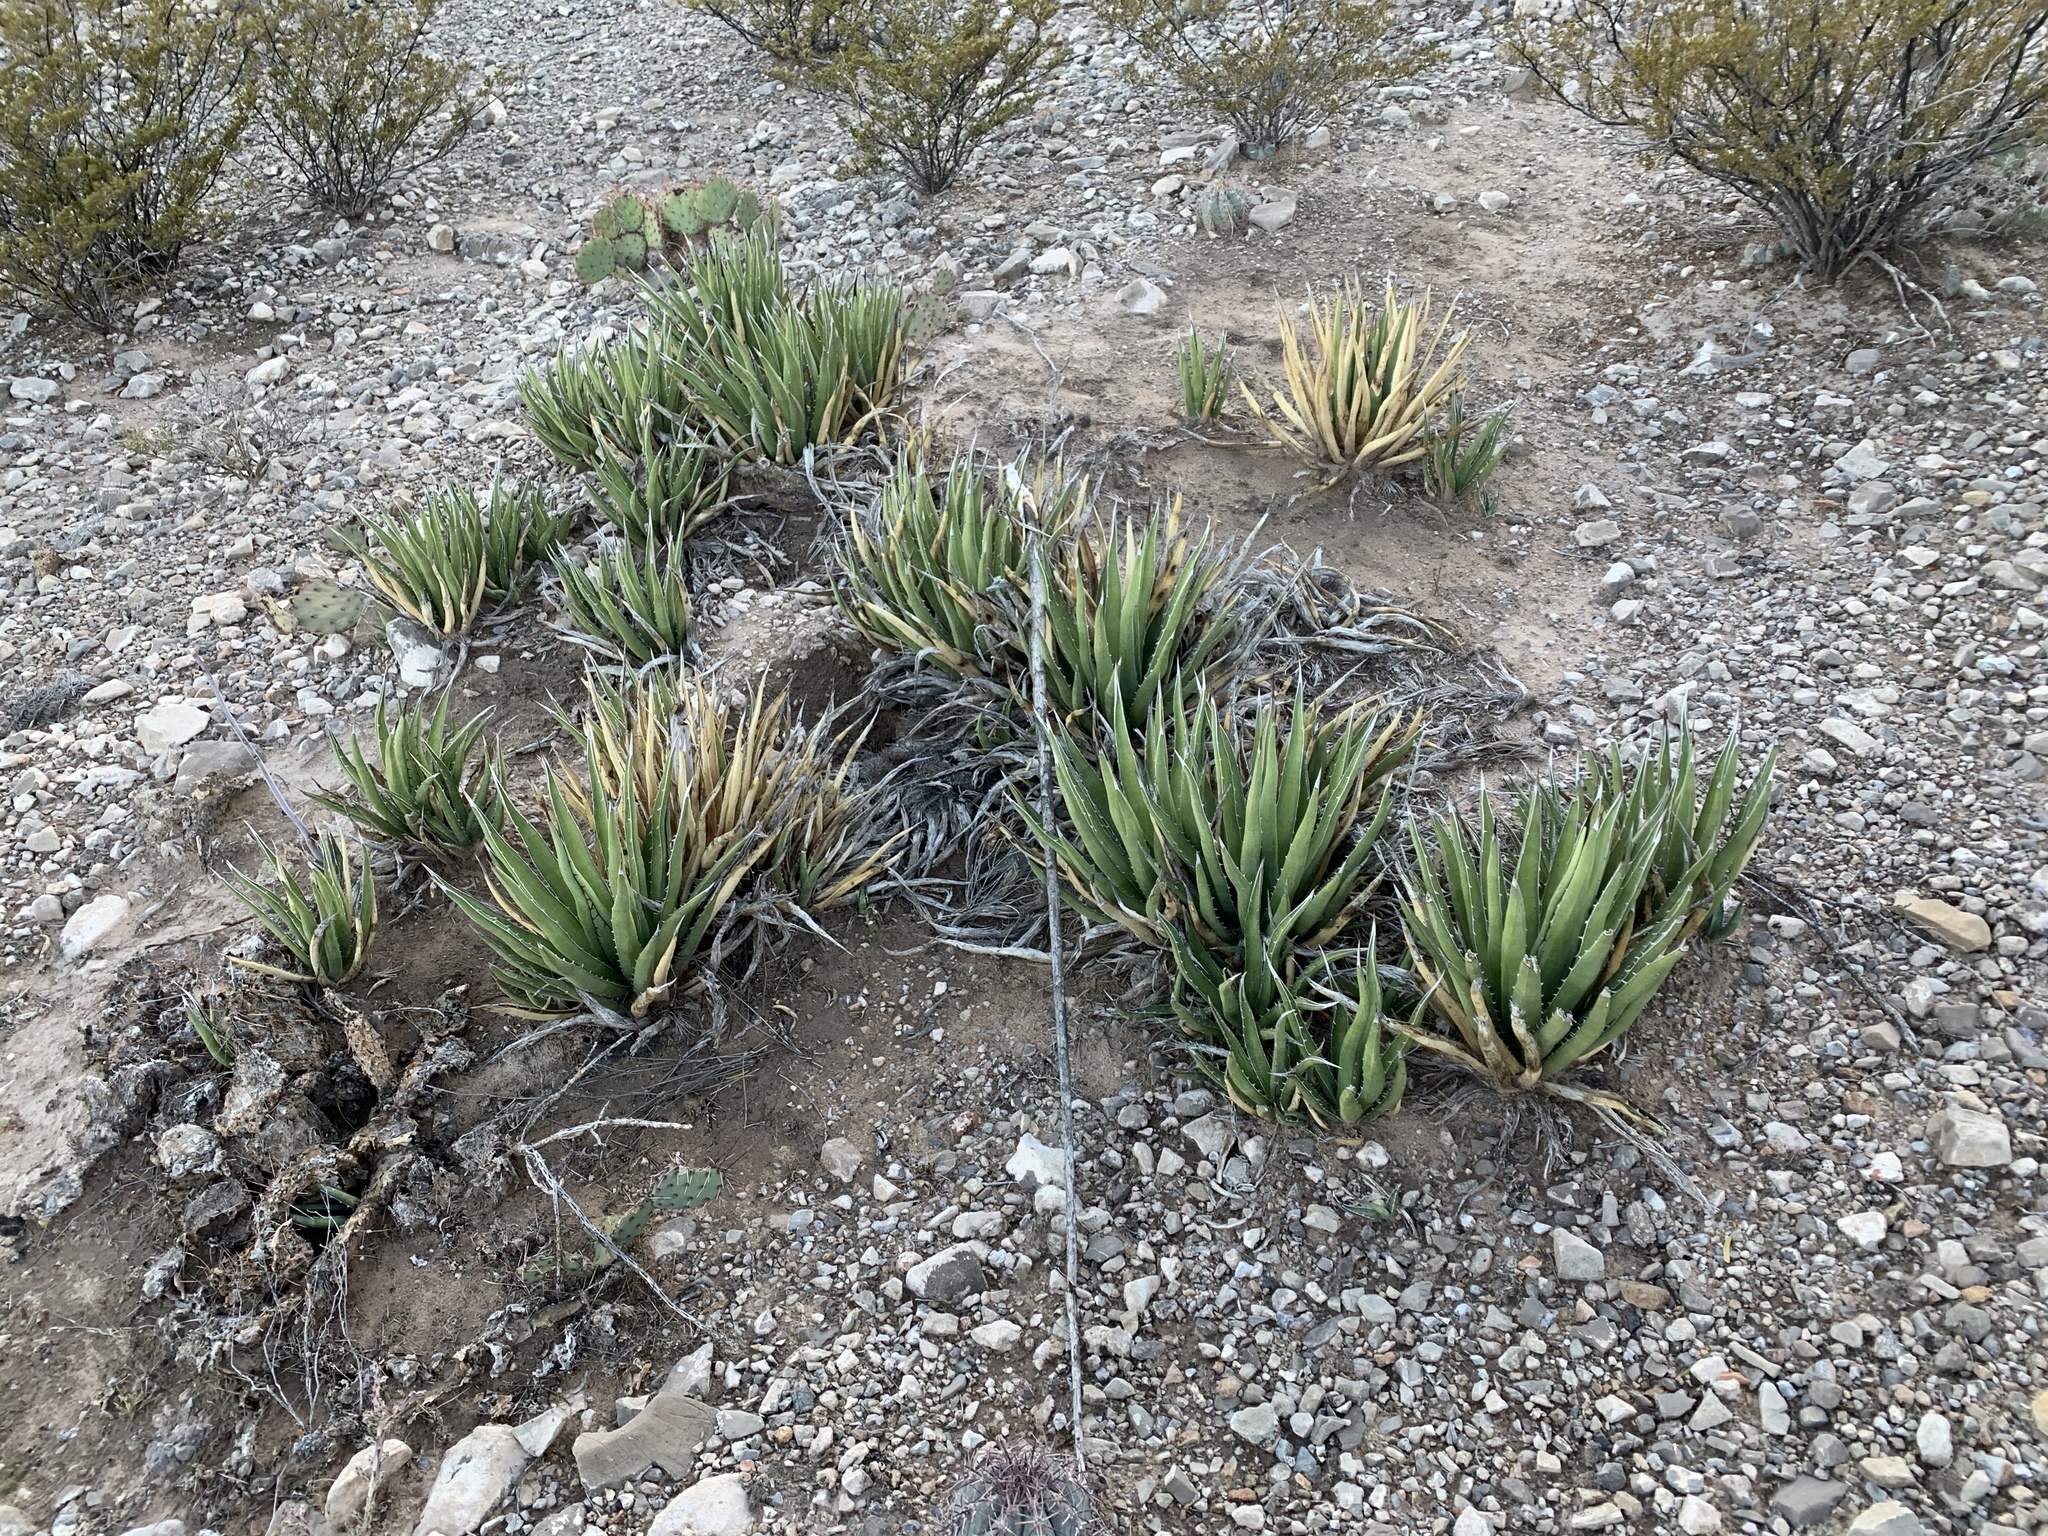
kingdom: Plantae
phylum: Tracheophyta
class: Liliopsida
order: Asparagales
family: Asparagaceae
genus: Agave
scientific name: Agave lechuguilla
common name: Lecheguilla agave
